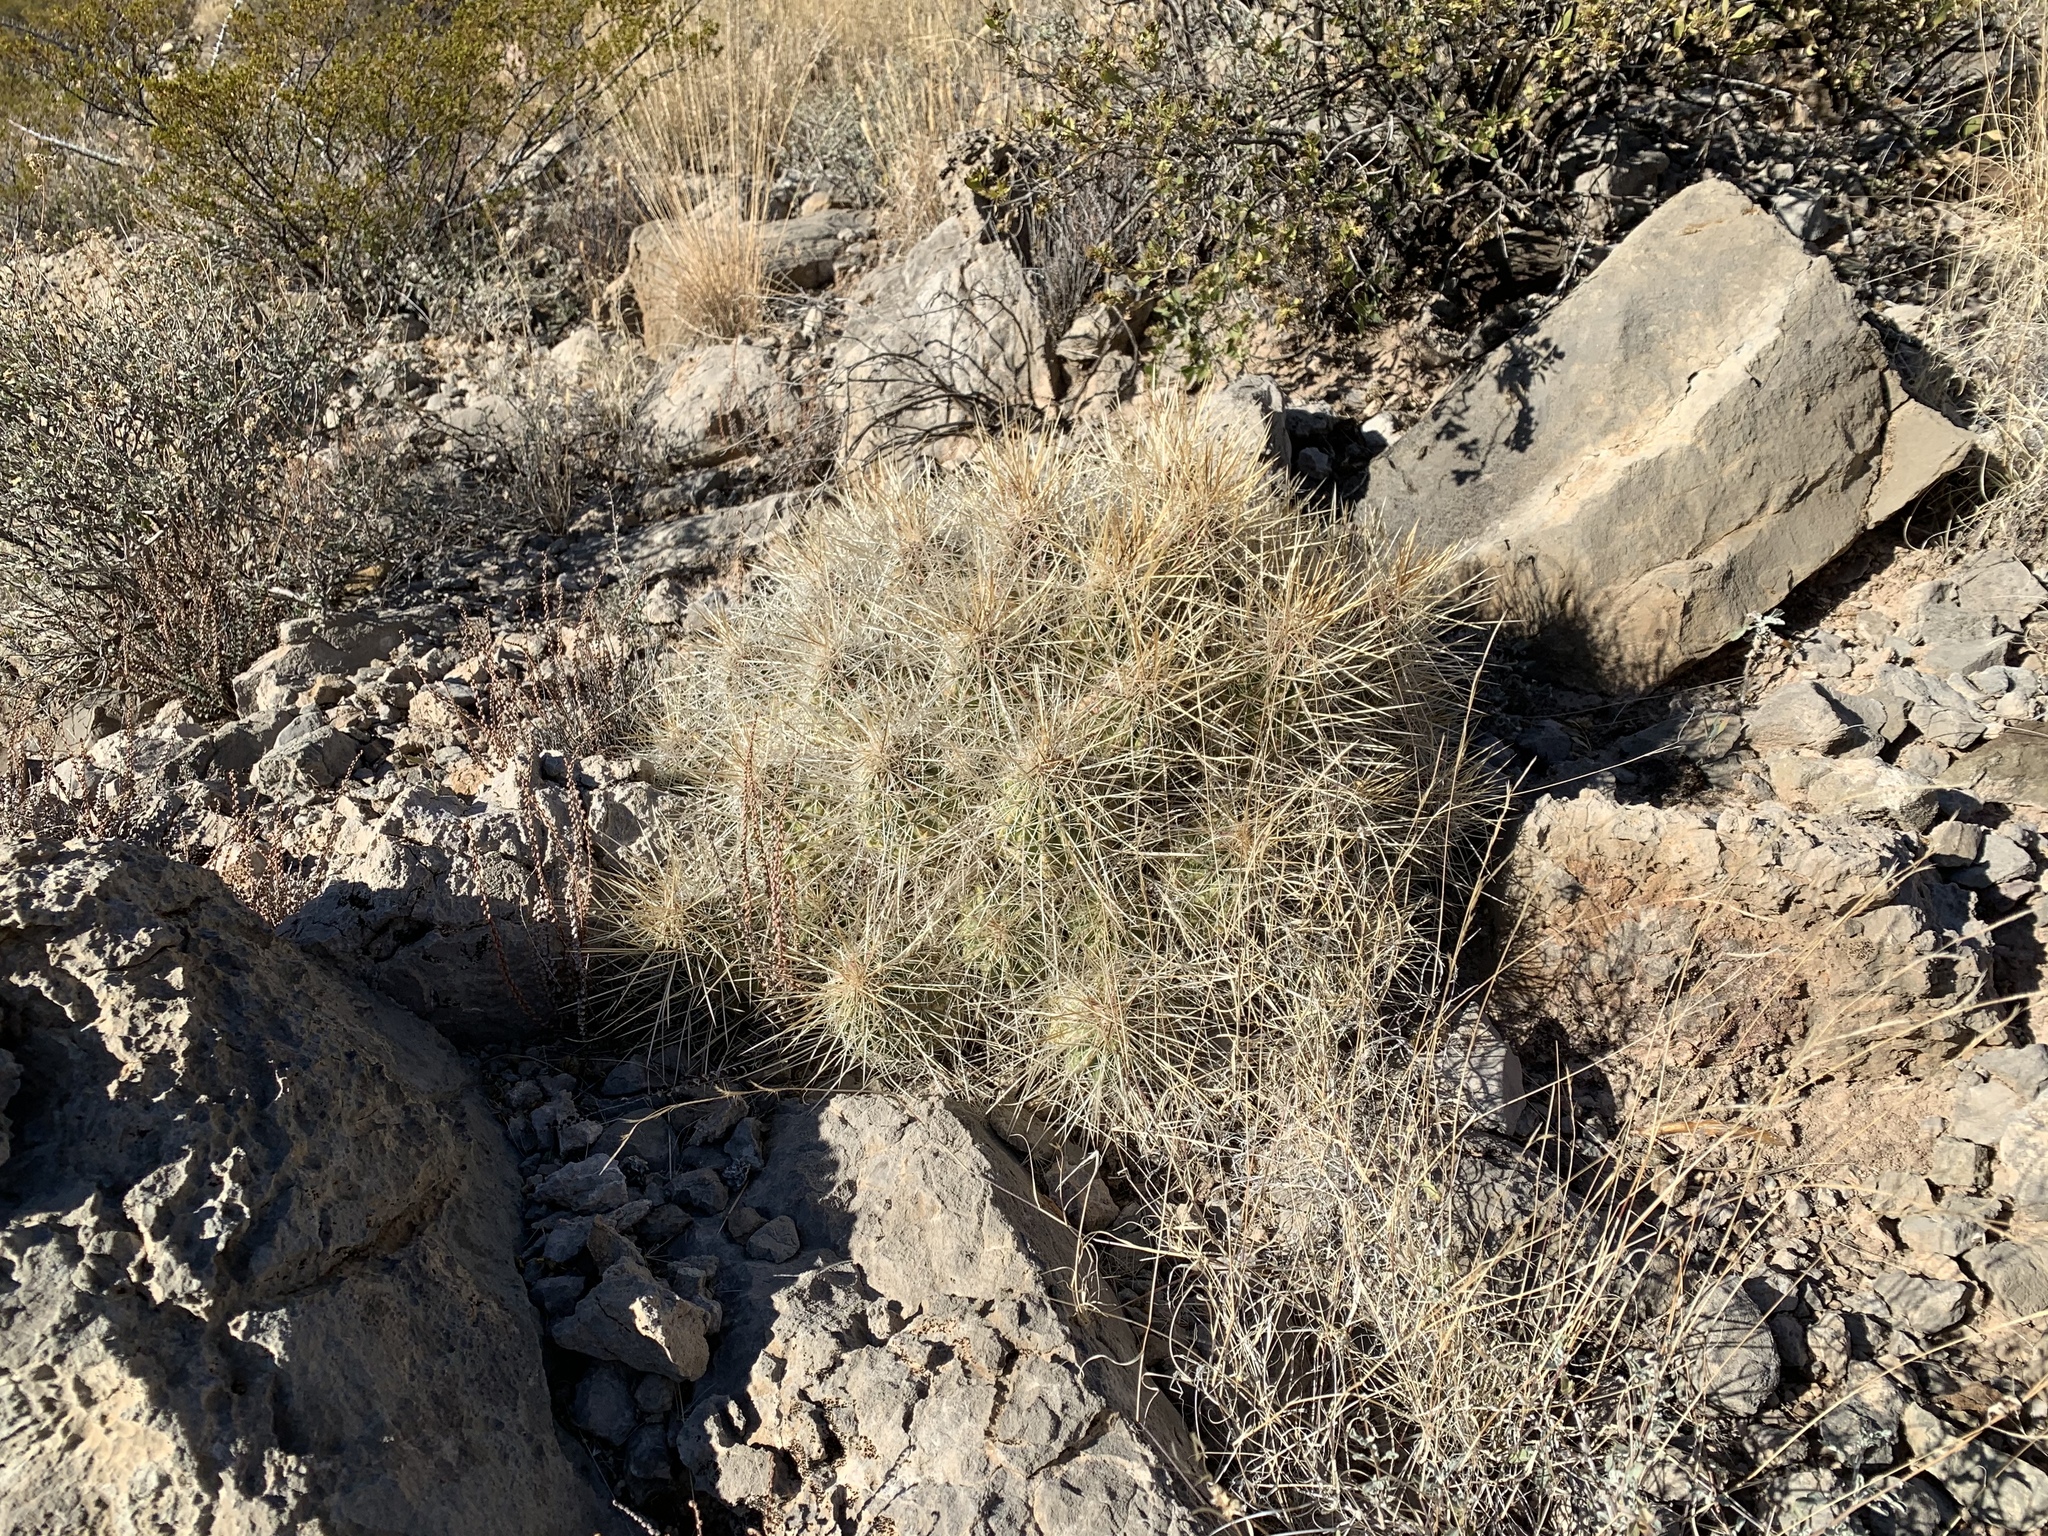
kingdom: Plantae
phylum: Tracheophyta
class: Magnoliopsida
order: Caryophyllales
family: Cactaceae
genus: Echinocereus
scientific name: Echinocereus stramineus
